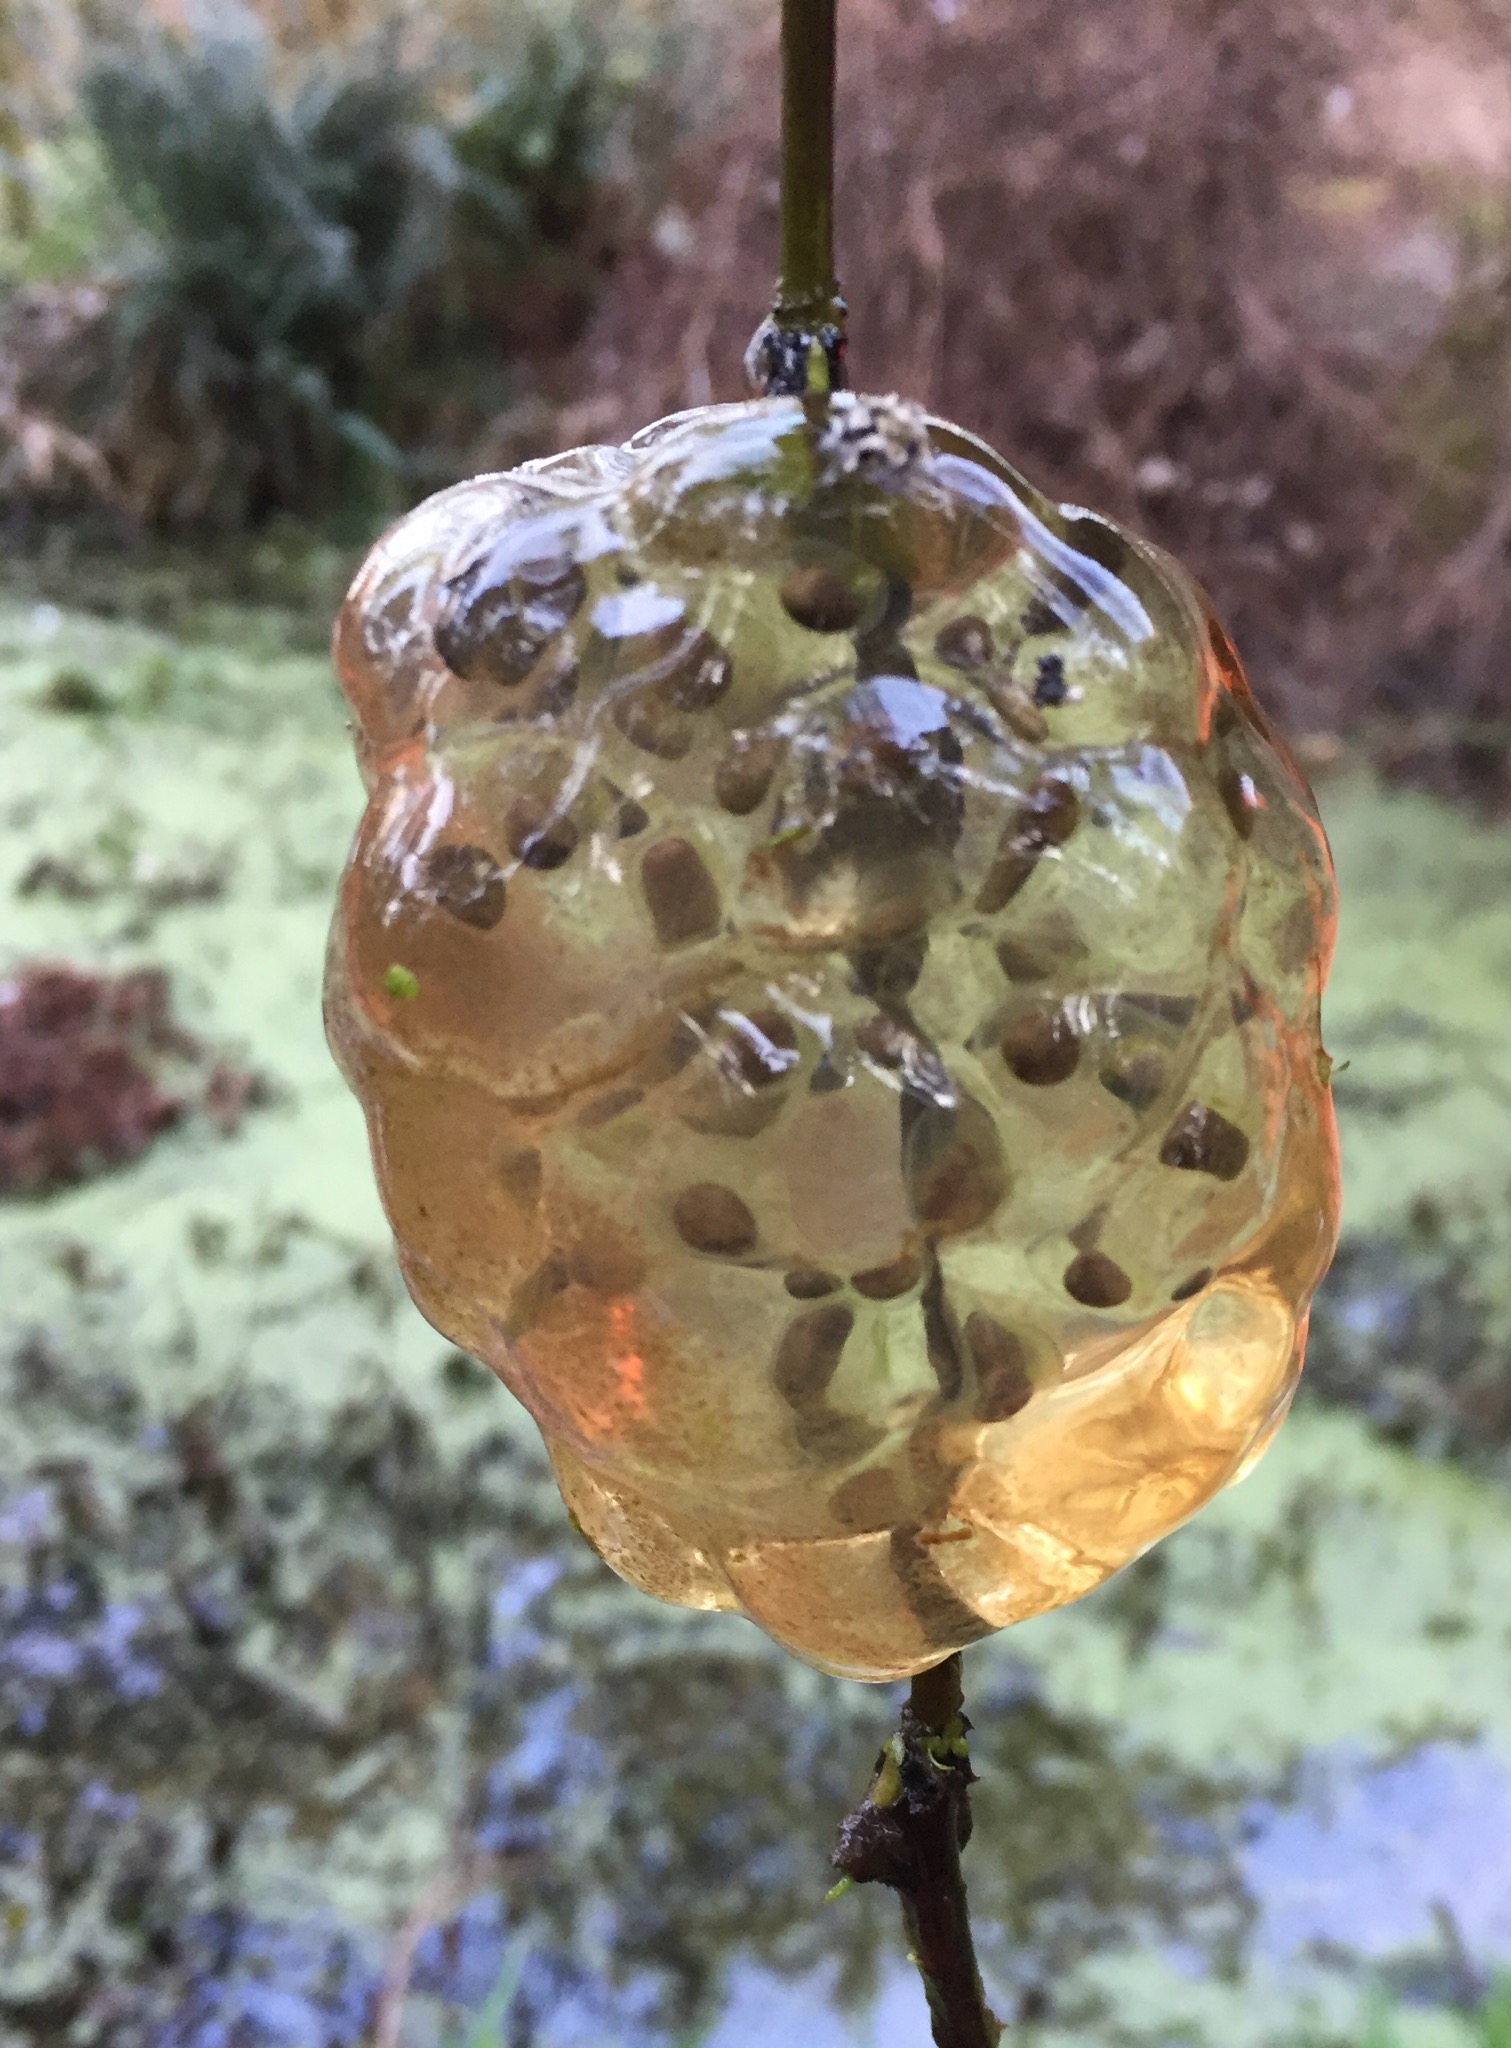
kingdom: Animalia
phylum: Chordata
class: Amphibia
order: Caudata
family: Ambystomatidae
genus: Ambystoma
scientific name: Ambystoma gracile
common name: Northwestern salamander
